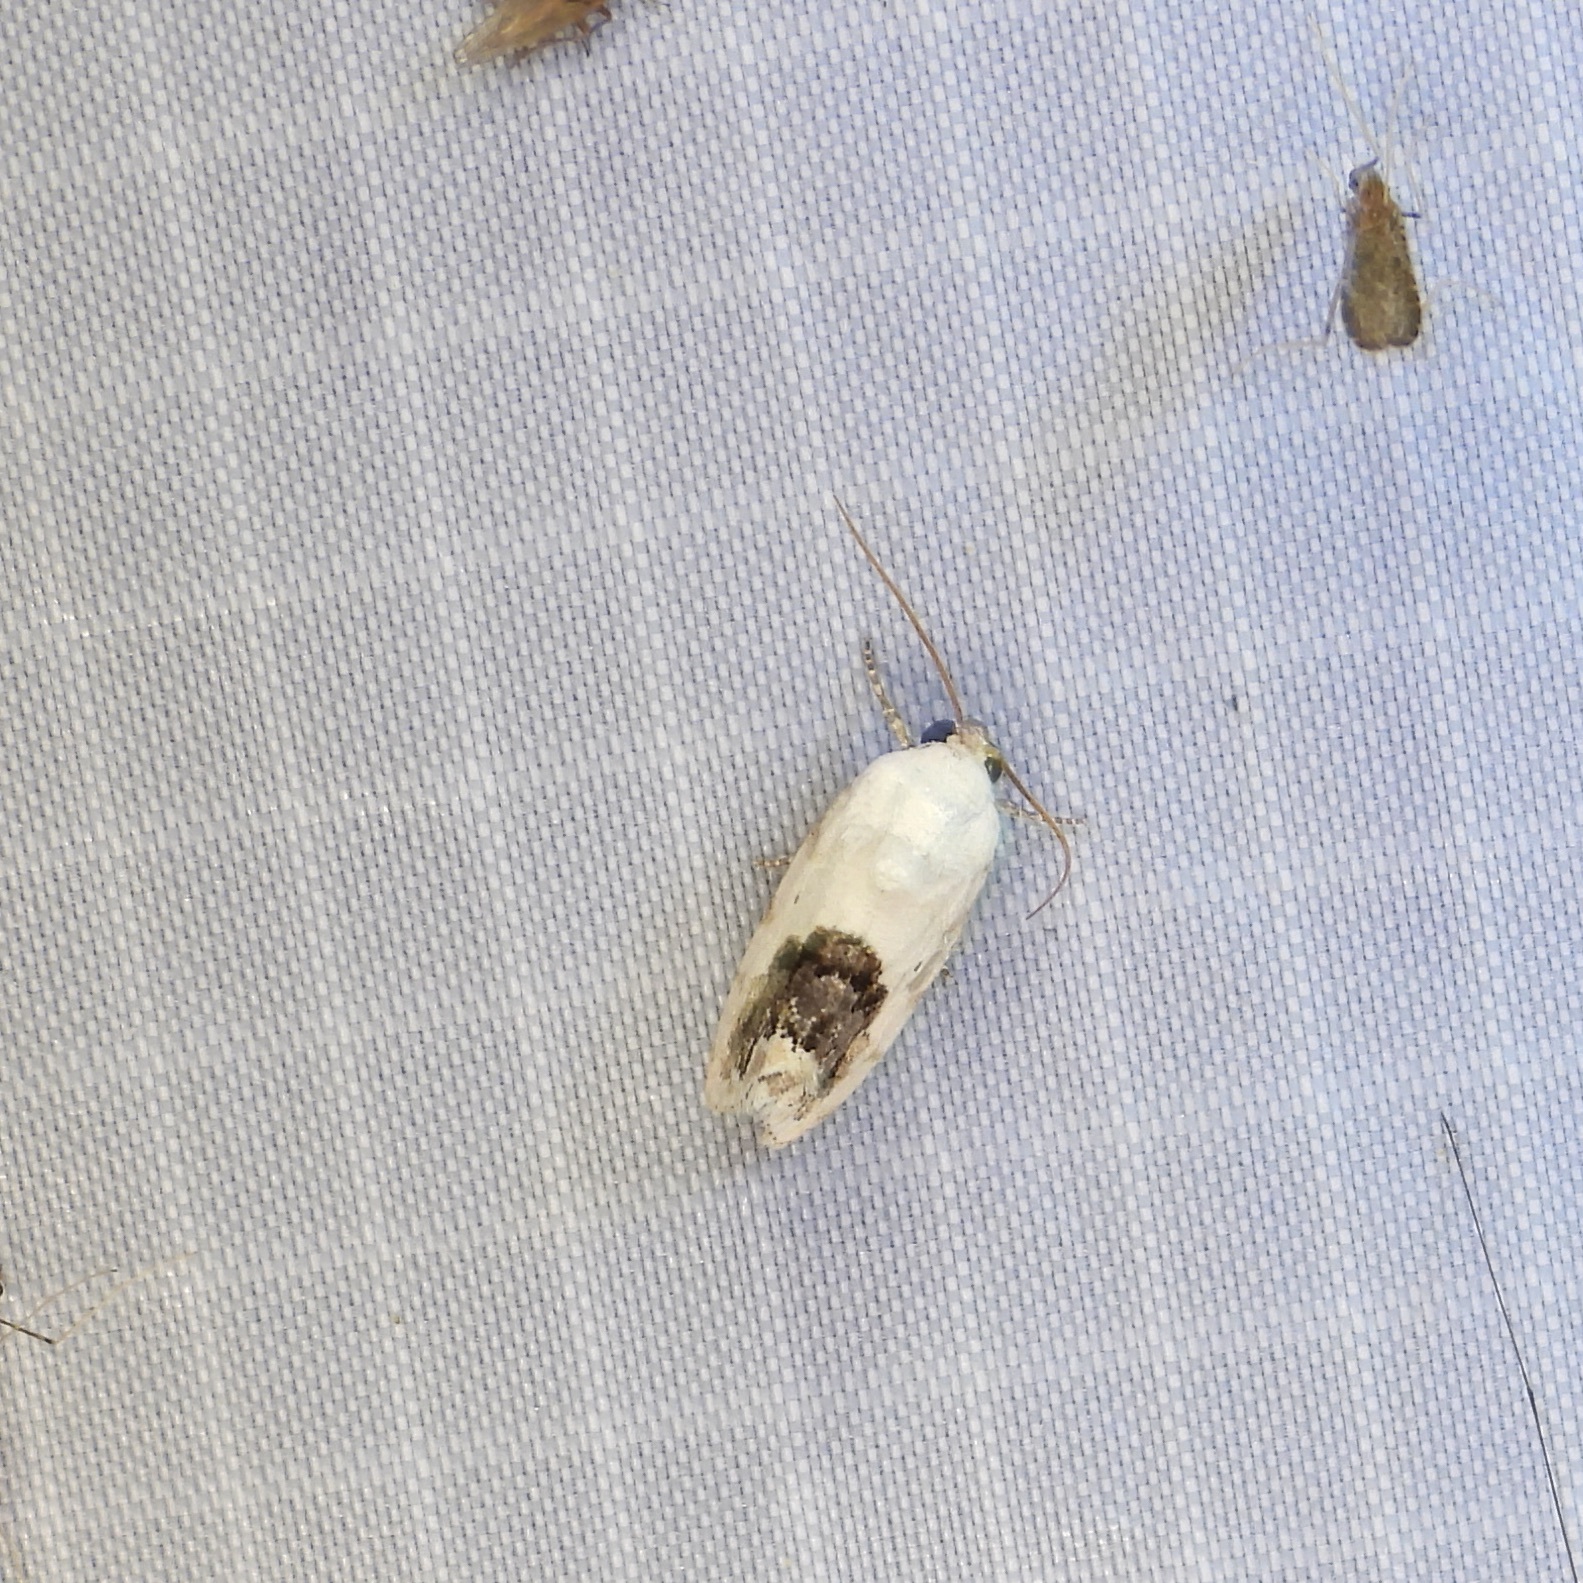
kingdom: Animalia
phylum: Arthropoda
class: Insecta
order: Lepidoptera
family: Noctuidae
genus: Acontia
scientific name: Acontia erastrioides
